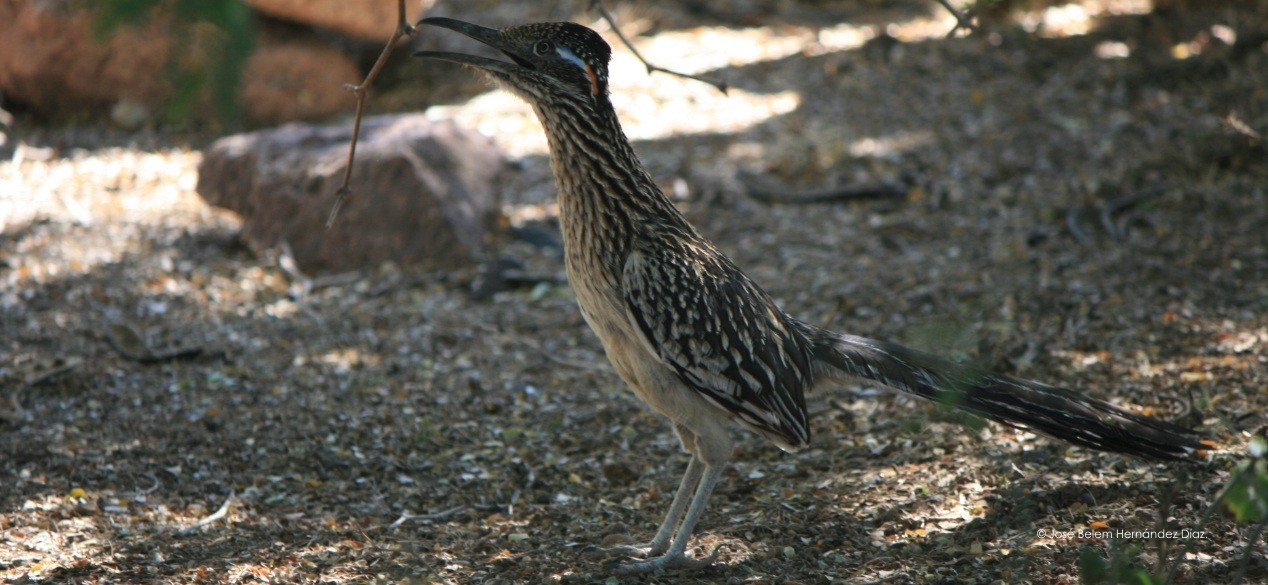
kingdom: Animalia
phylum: Chordata
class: Aves
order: Cuculiformes
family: Cuculidae
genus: Geococcyx
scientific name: Geococcyx californianus
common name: Greater roadrunner
